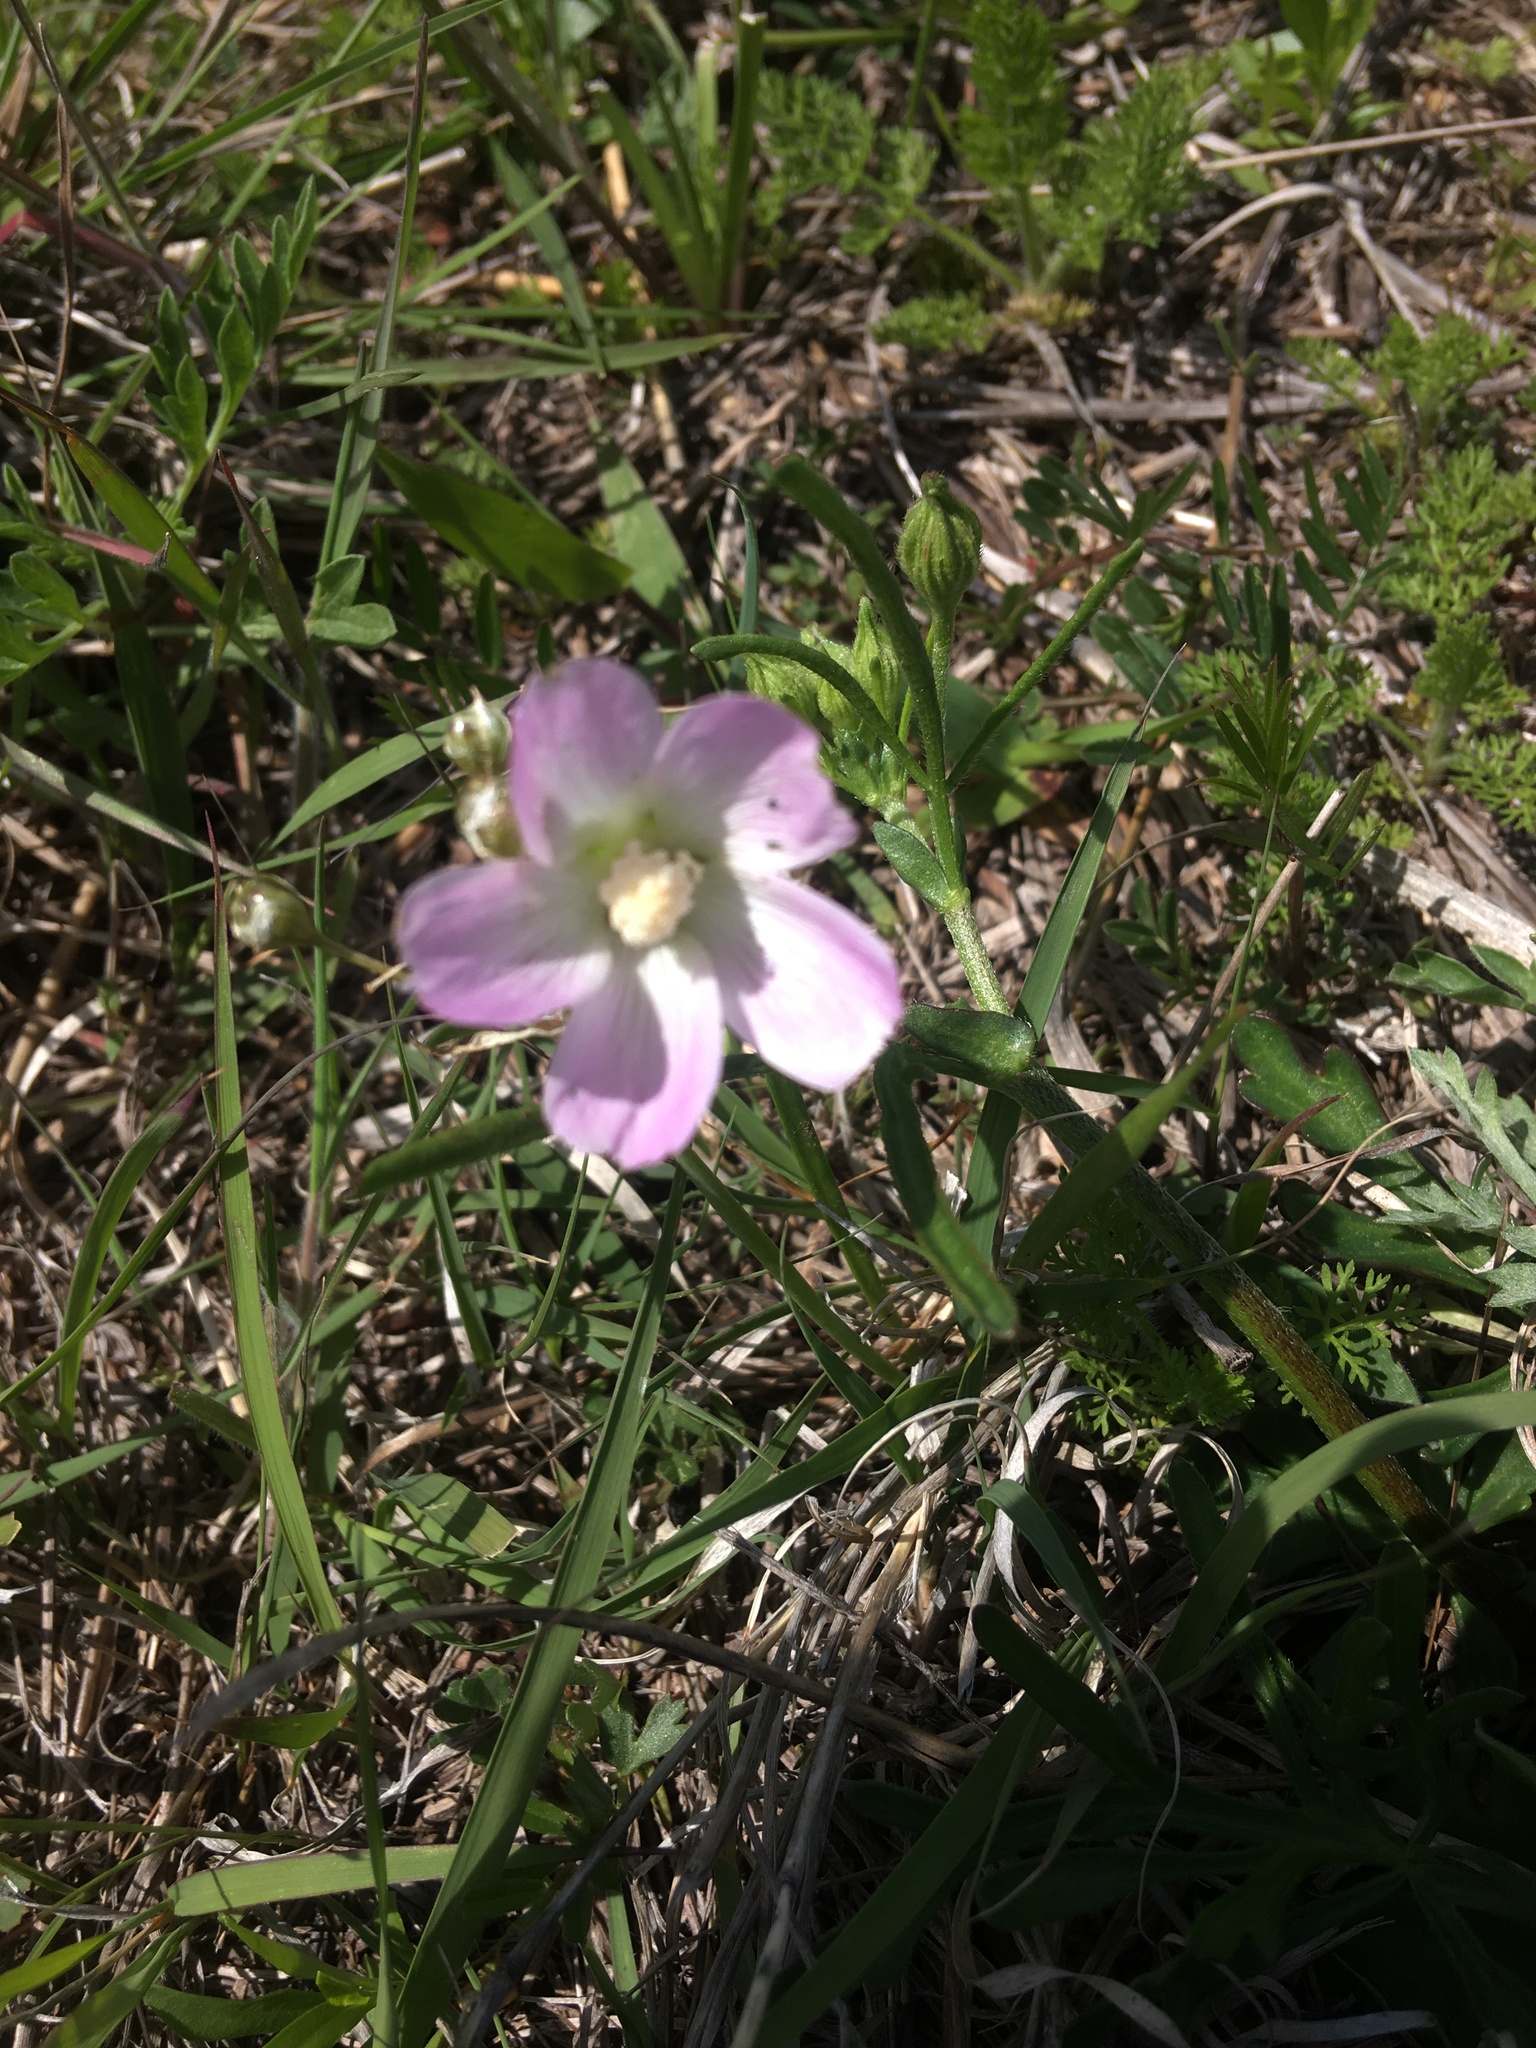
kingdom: Plantae
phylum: Tracheophyta
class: Magnoliopsida
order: Malvales
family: Malvaceae
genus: Callirhoe
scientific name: Callirhoe alcaeoides
